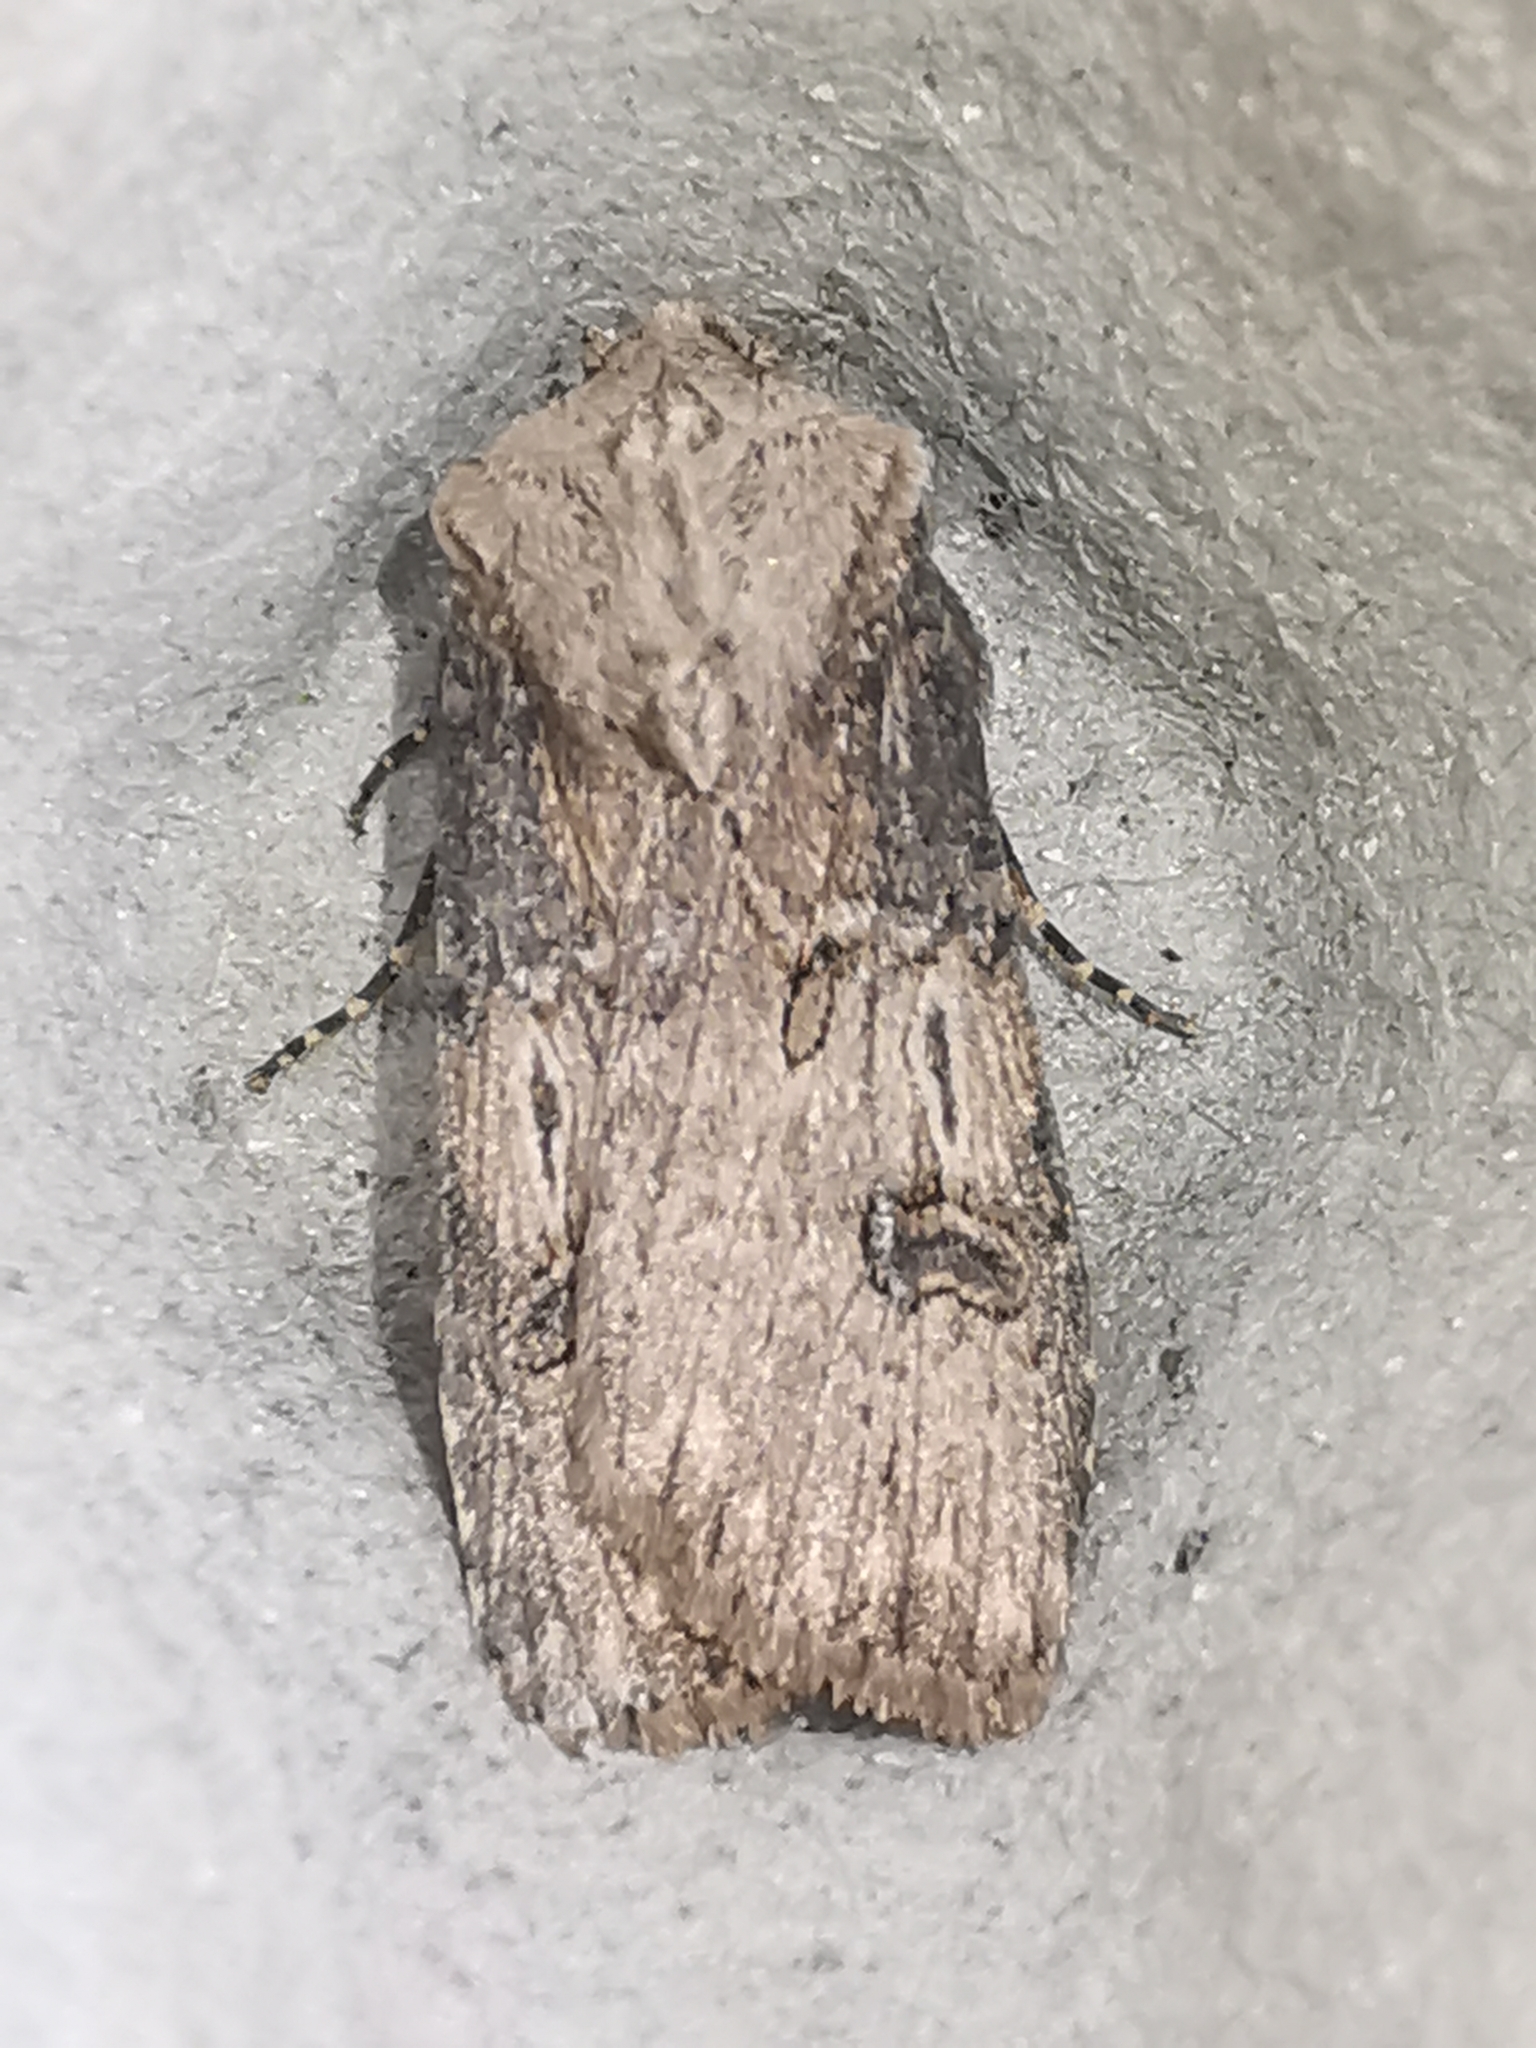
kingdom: Animalia
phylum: Arthropoda
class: Insecta
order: Lepidoptera
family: Noctuidae
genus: Agrotis
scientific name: Agrotis puta
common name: Shuttle-shaped dart
